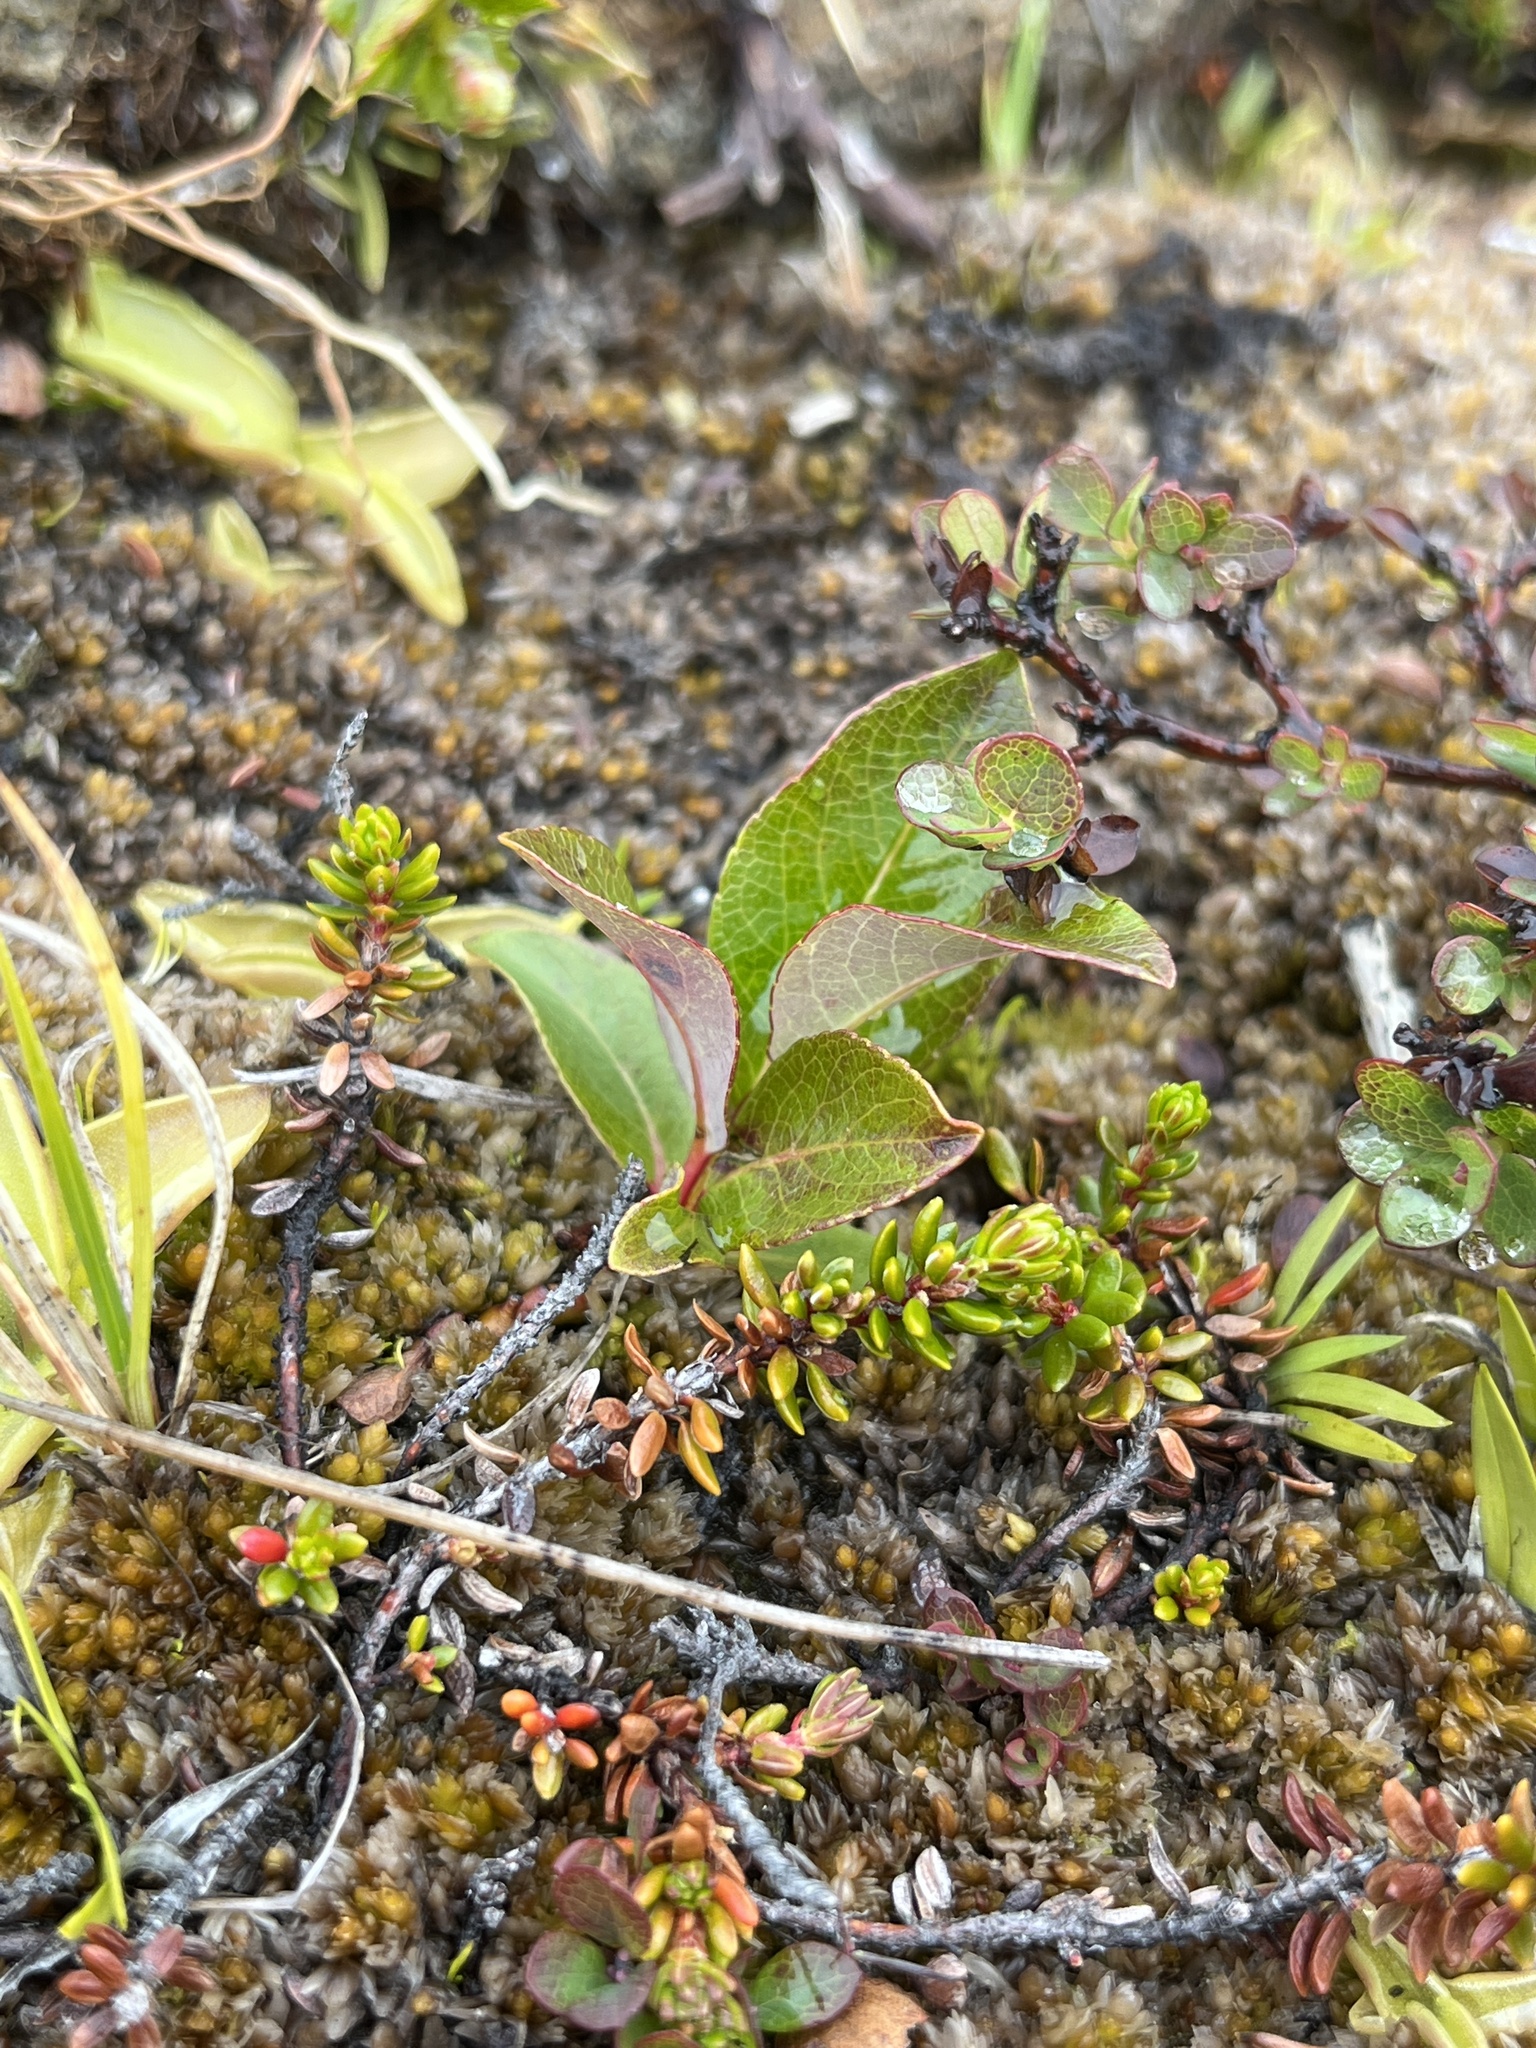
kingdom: Plantae
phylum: Tracheophyta
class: Magnoliopsida
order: Malpighiales
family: Salicaceae
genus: Salix
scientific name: Salix arctophila
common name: Greenland willow
